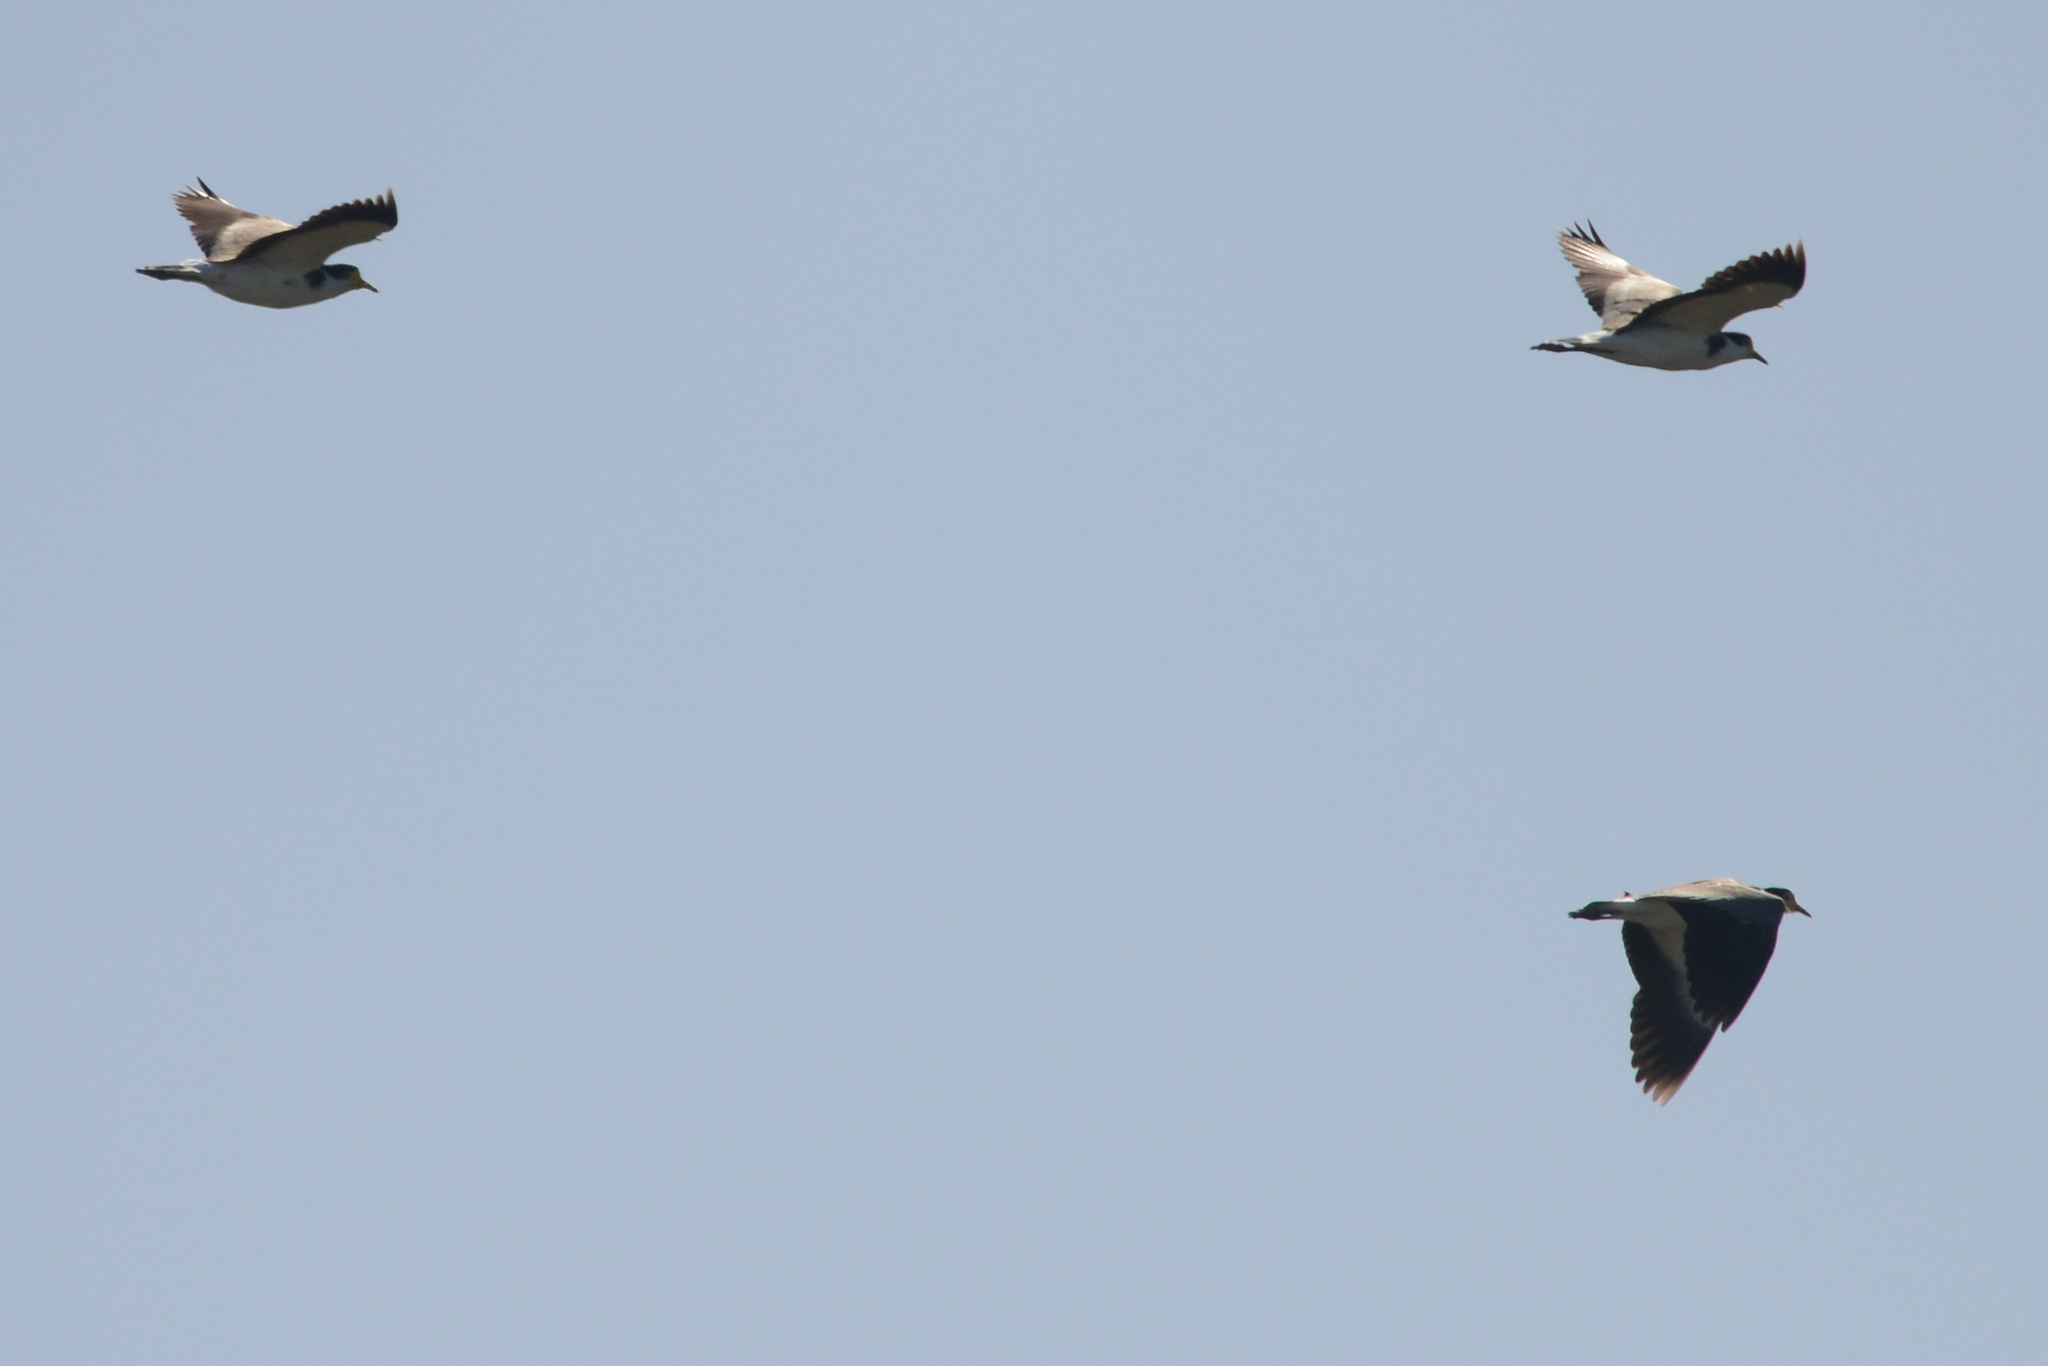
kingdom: Animalia
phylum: Chordata
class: Aves
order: Charadriiformes
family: Charadriidae
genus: Vanellus
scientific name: Vanellus miles
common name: Masked lapwing
